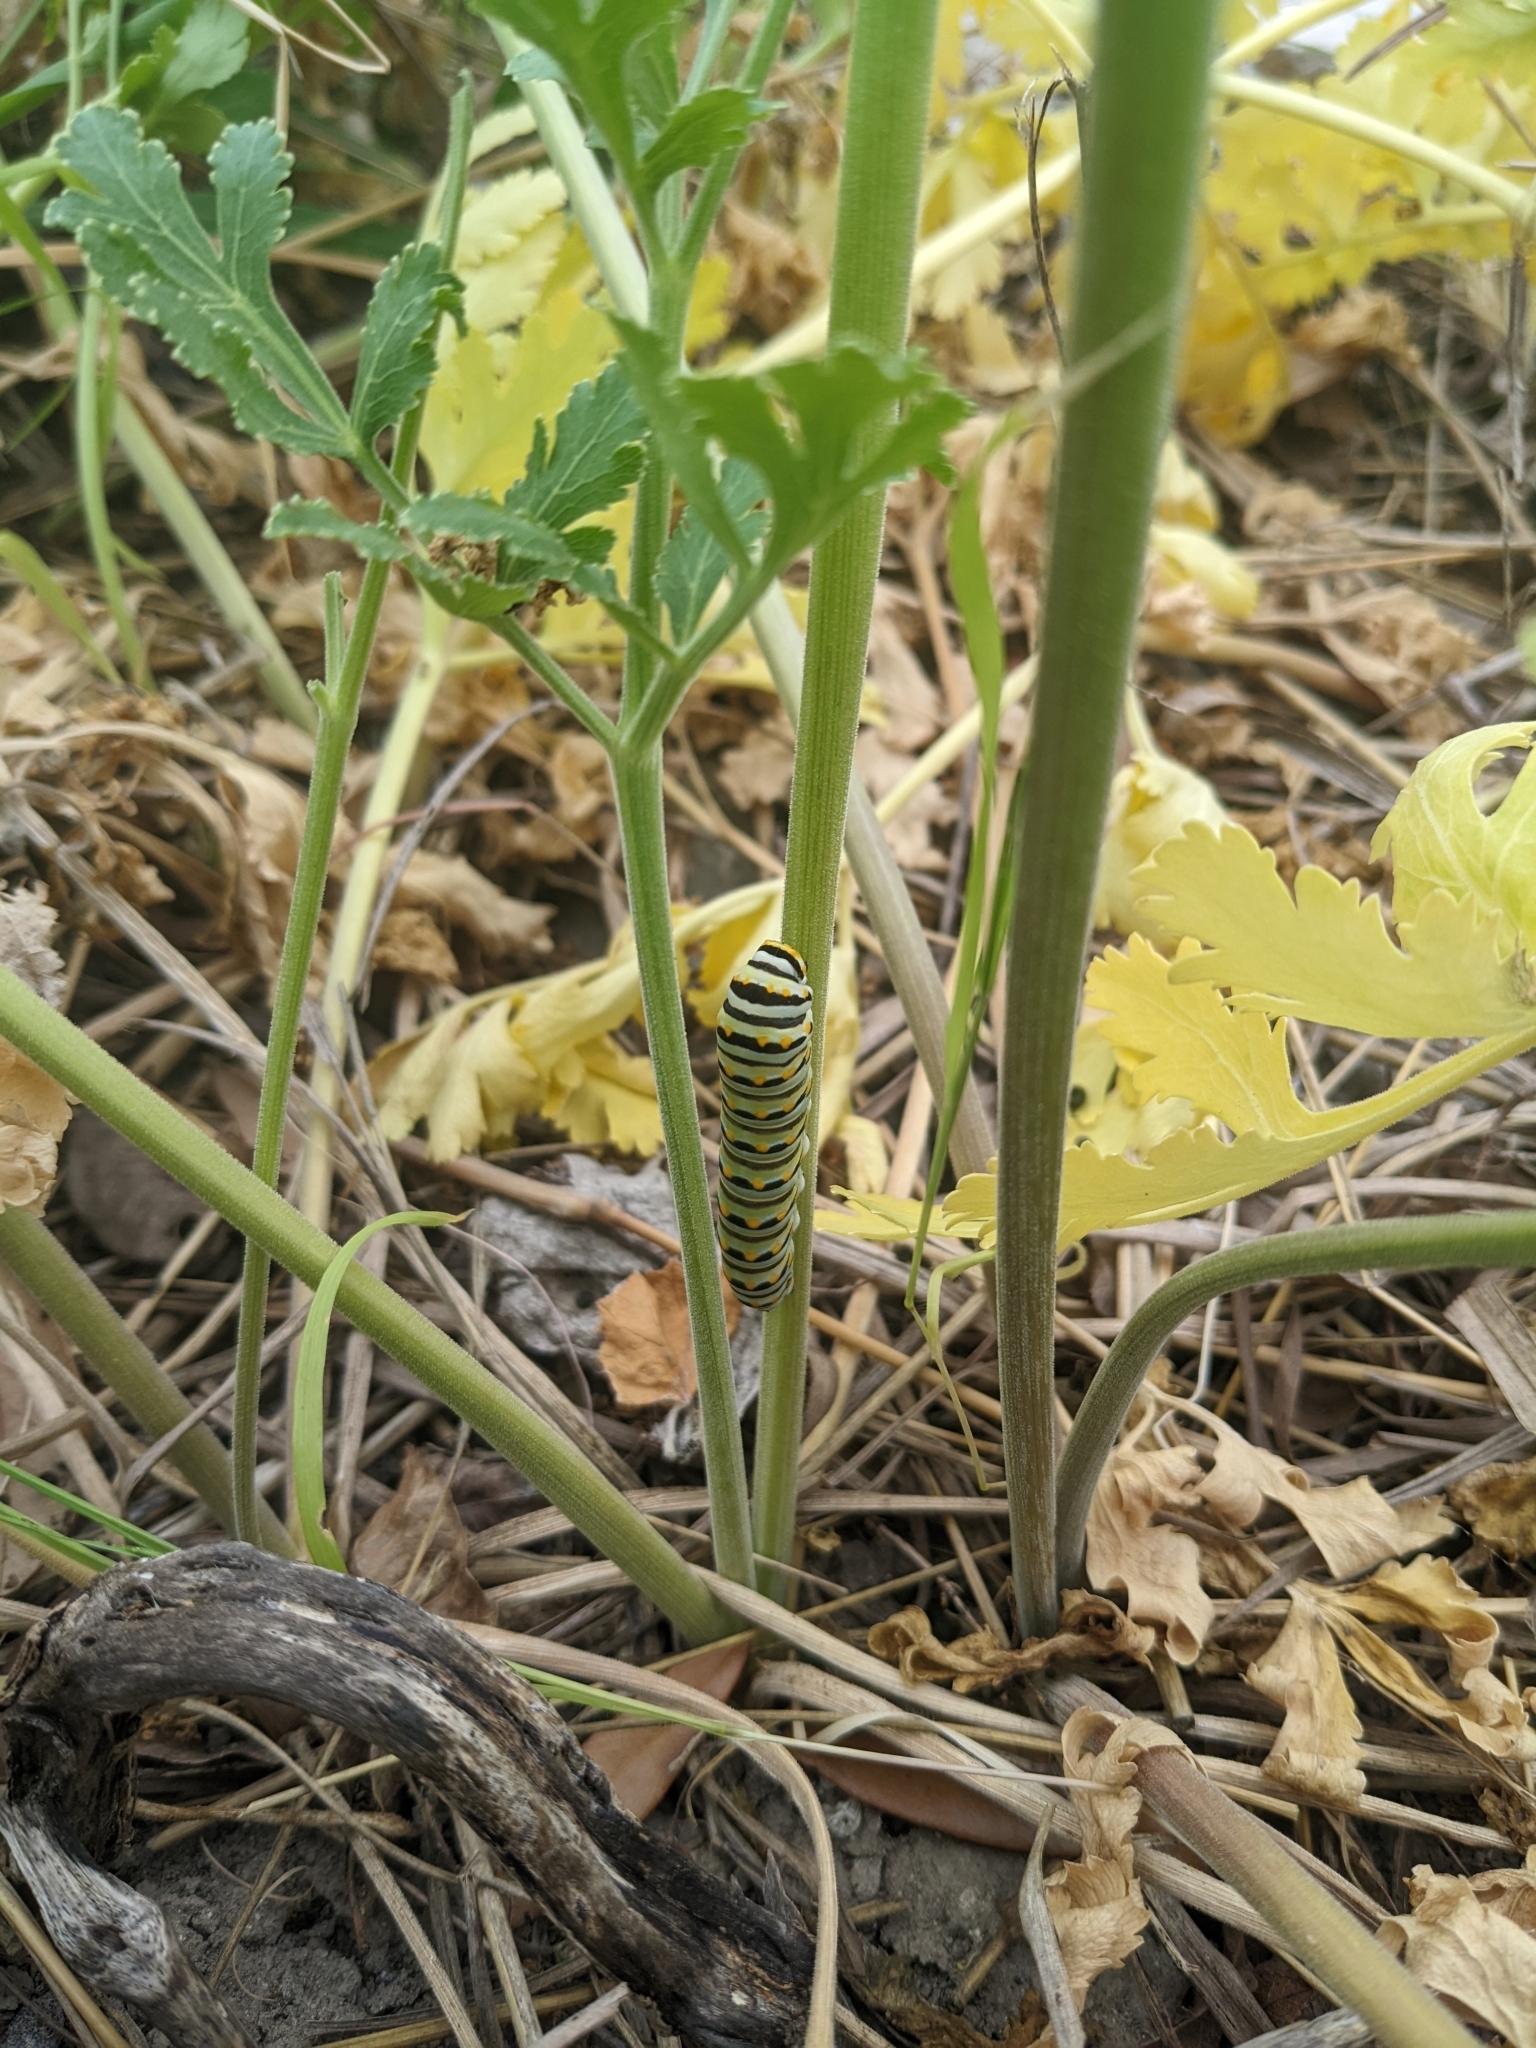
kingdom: Animalia
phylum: Arthropoda
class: Insecta
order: Lepidoptera
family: Papilionidae
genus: Papilio
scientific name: Papilio polyxenes
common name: Black swallowtail
